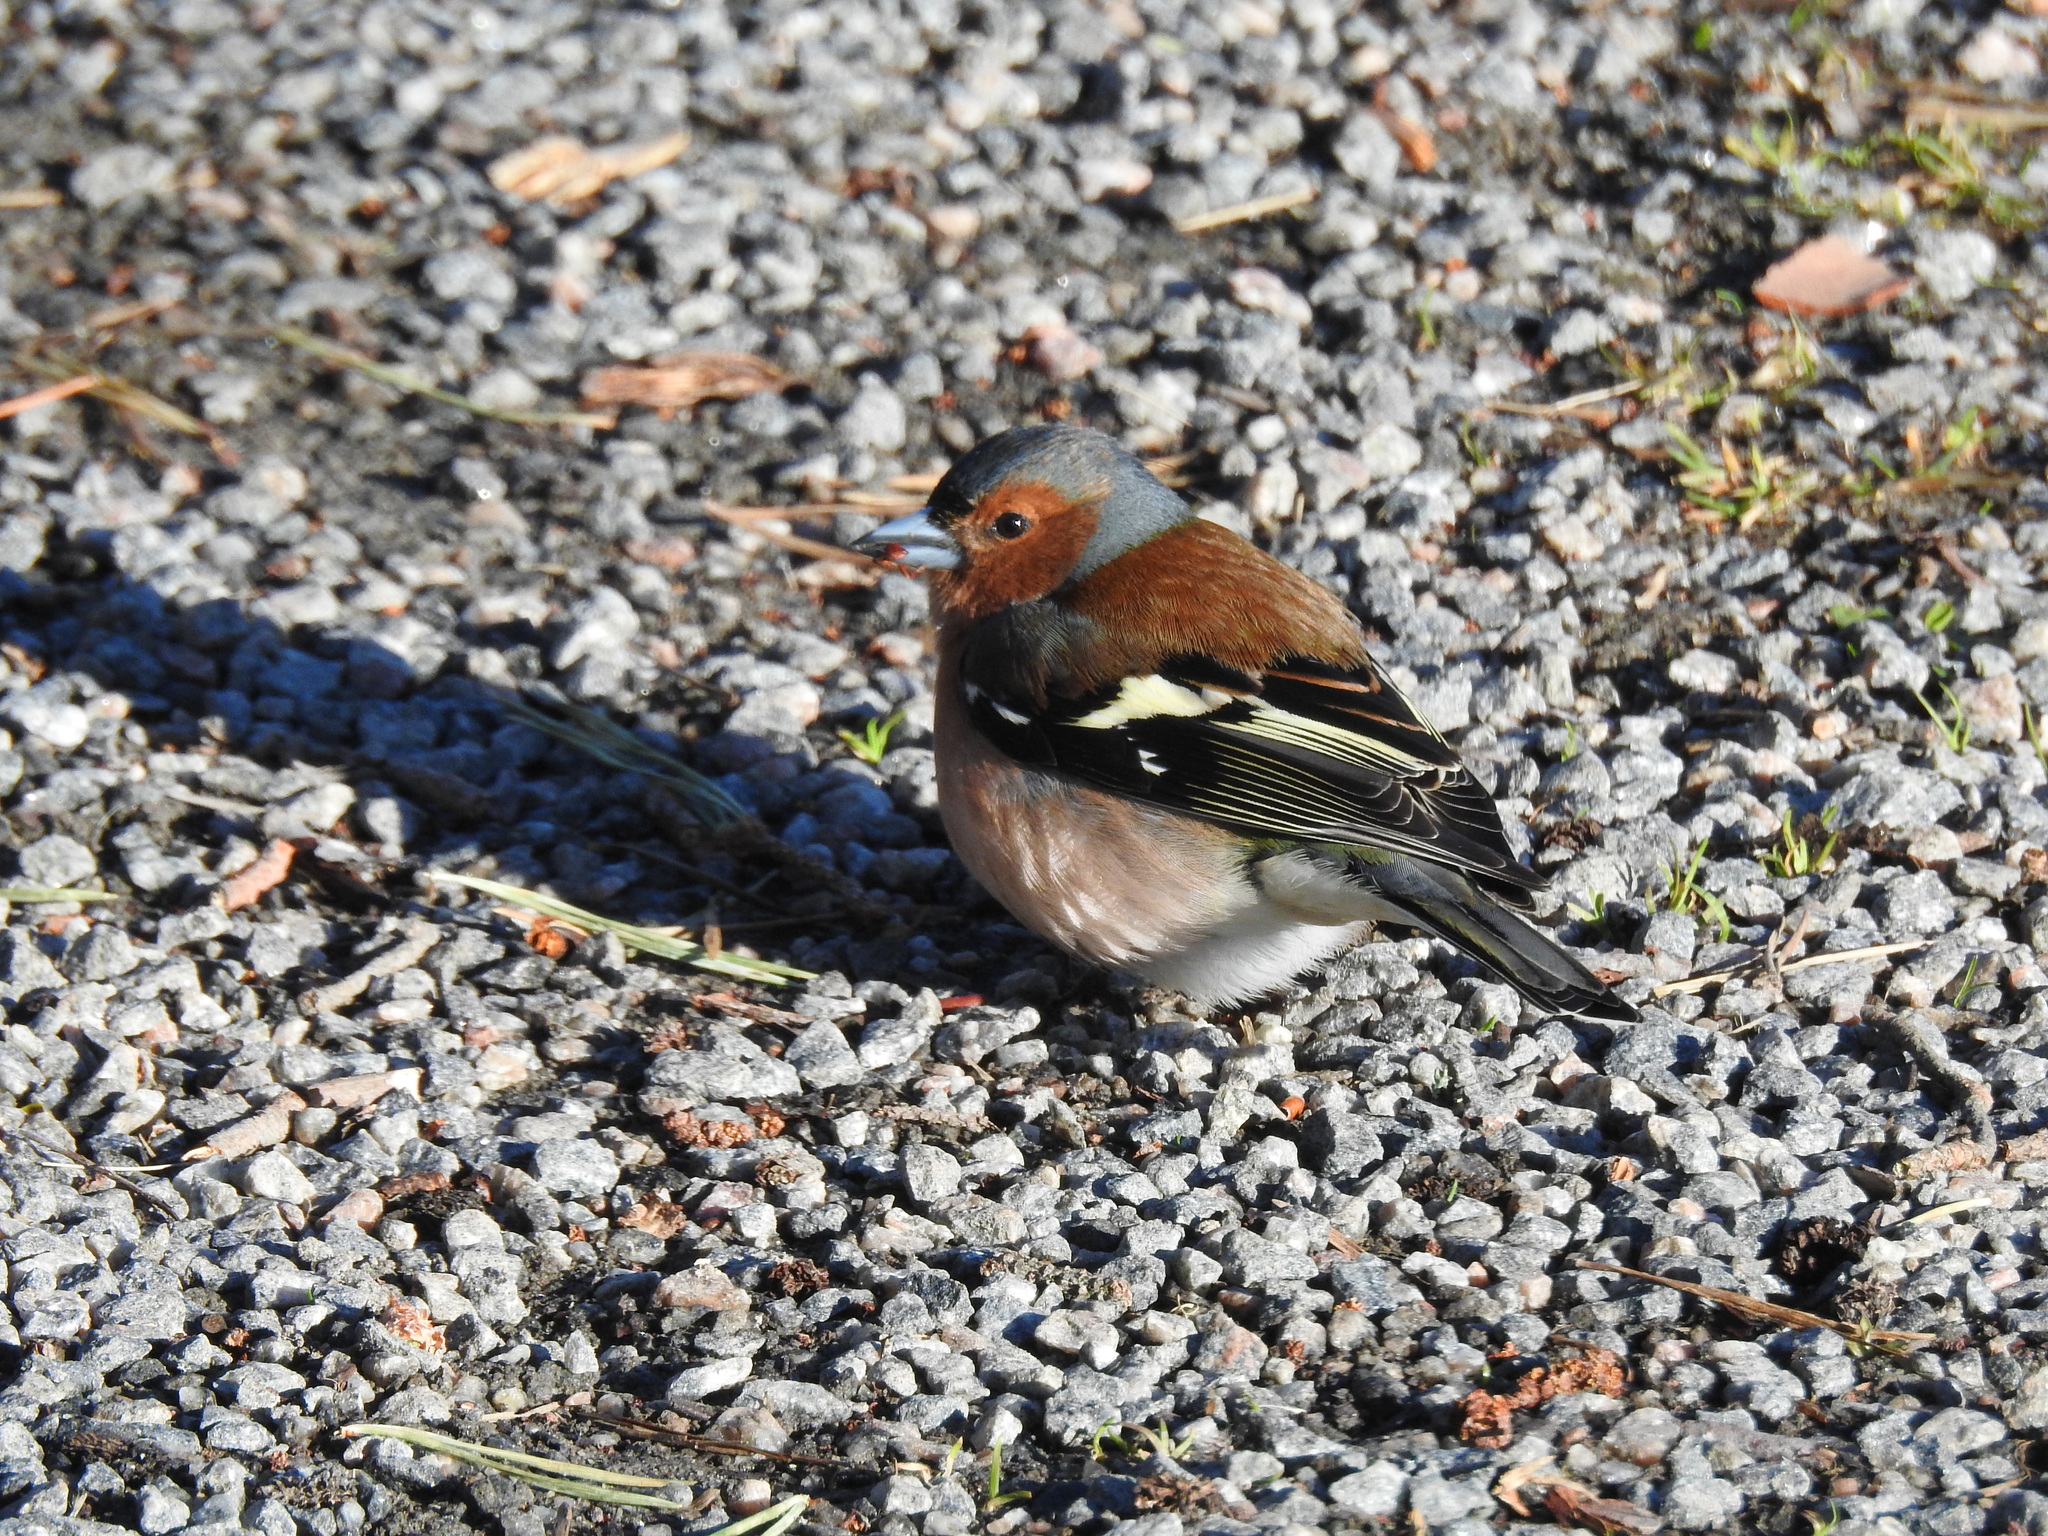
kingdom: Animalia
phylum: Chordata
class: Aves
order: Passeriformes
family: Fringillidae
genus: Fringilla
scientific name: Fringilla coelebs
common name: Common chaffinch
